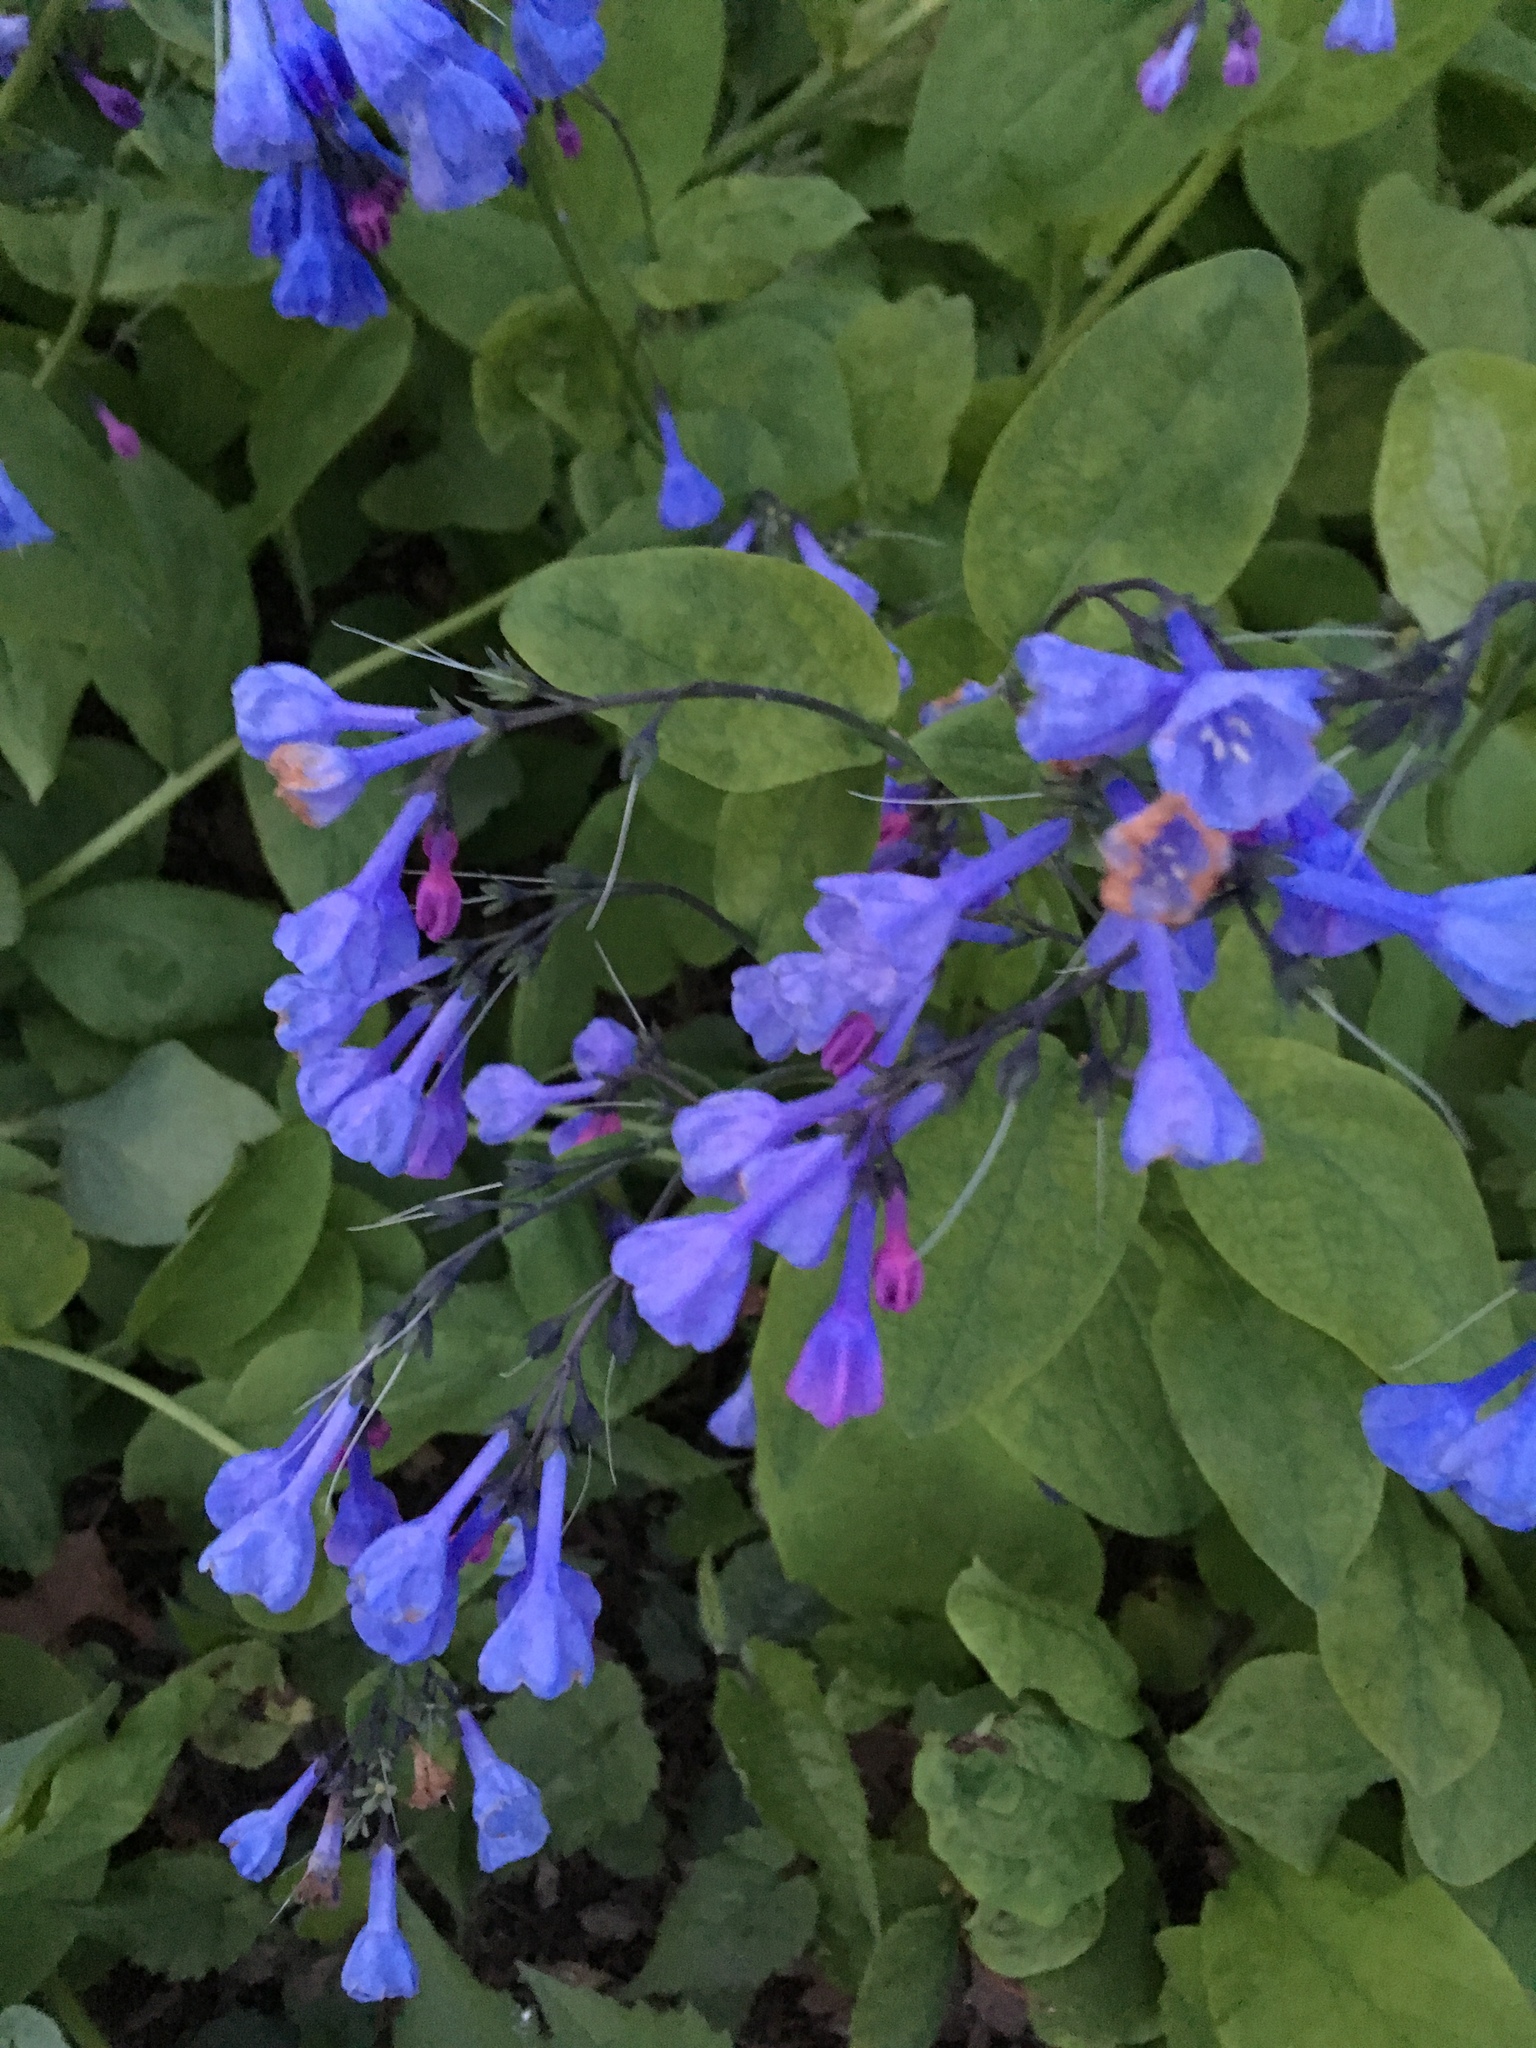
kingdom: Plantae
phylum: Tracheophyta
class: Magnoliopsida
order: Boraginales
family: Boraginaceae
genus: Mertensia
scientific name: Mertensia virginica
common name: Virginia bluebells
